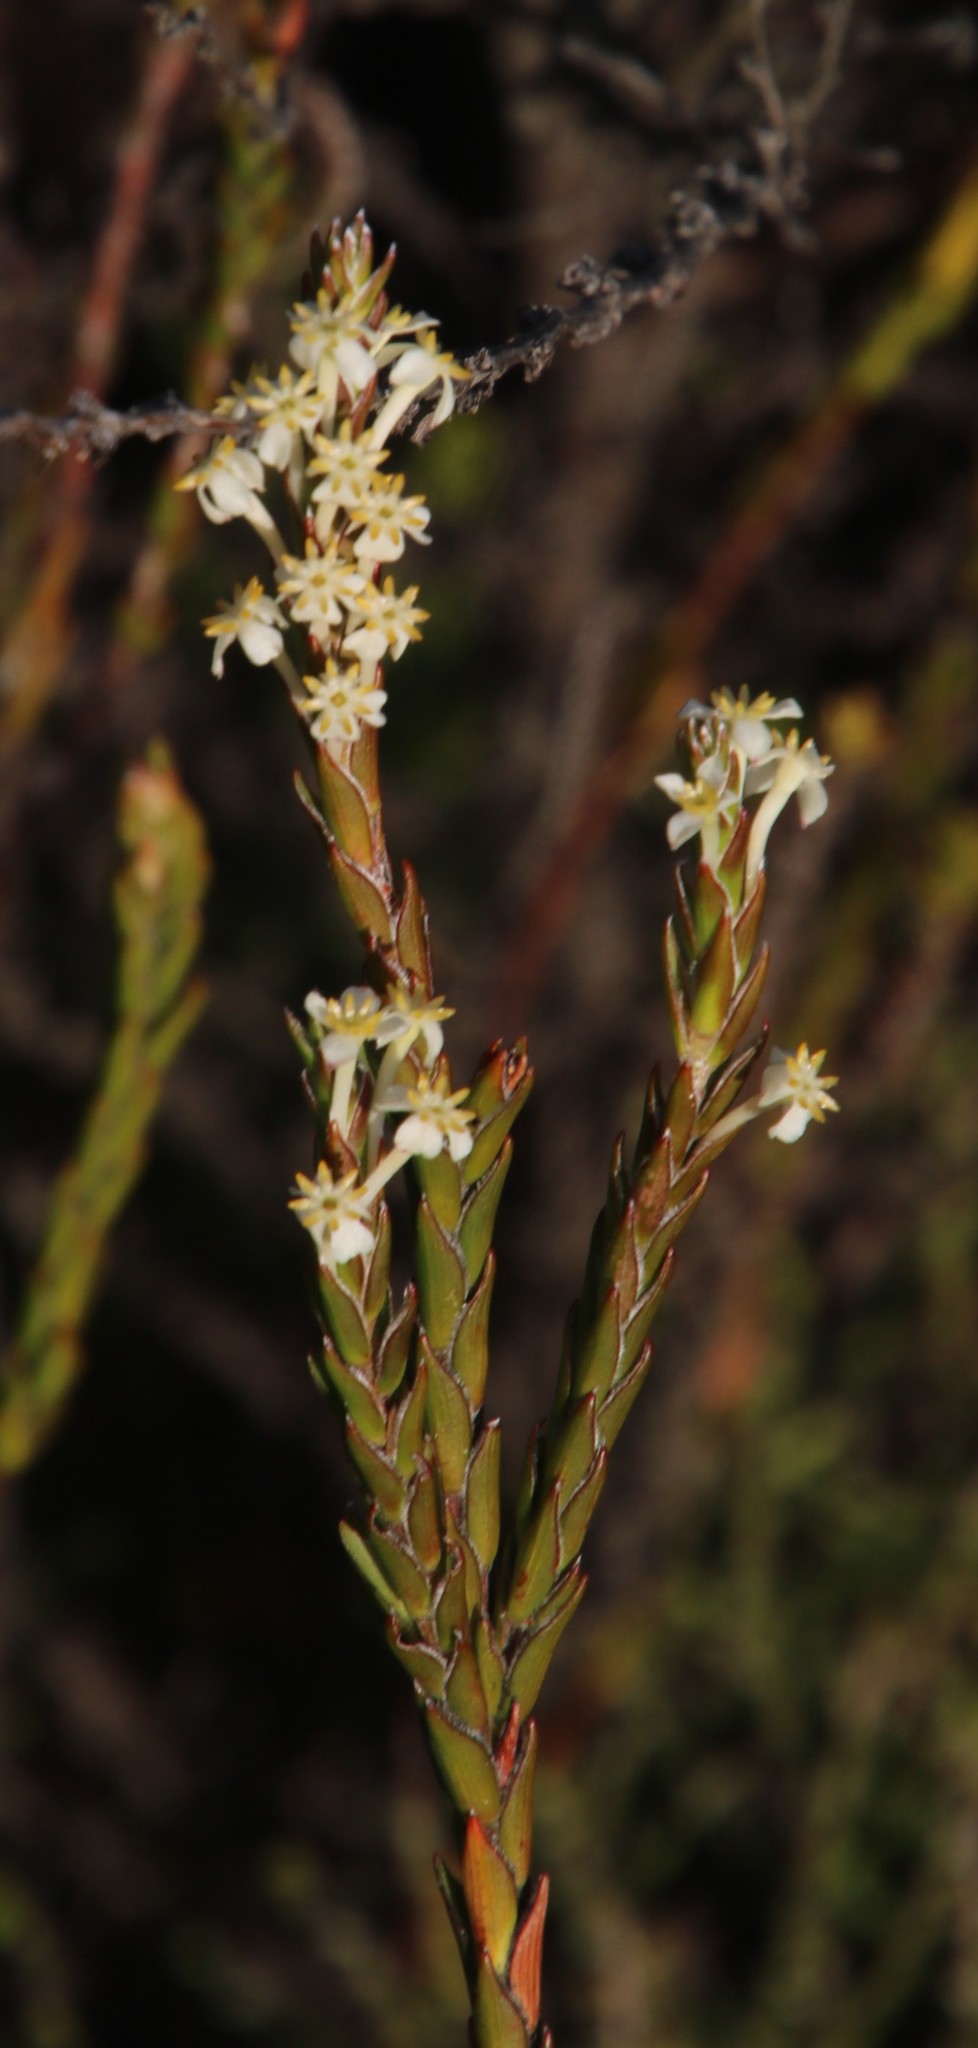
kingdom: Plantae
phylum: Tracheophyta
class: Magnoliopsida
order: Malvales
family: Thymelaeaceae
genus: Struthiola
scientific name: Struthiola ciliata
